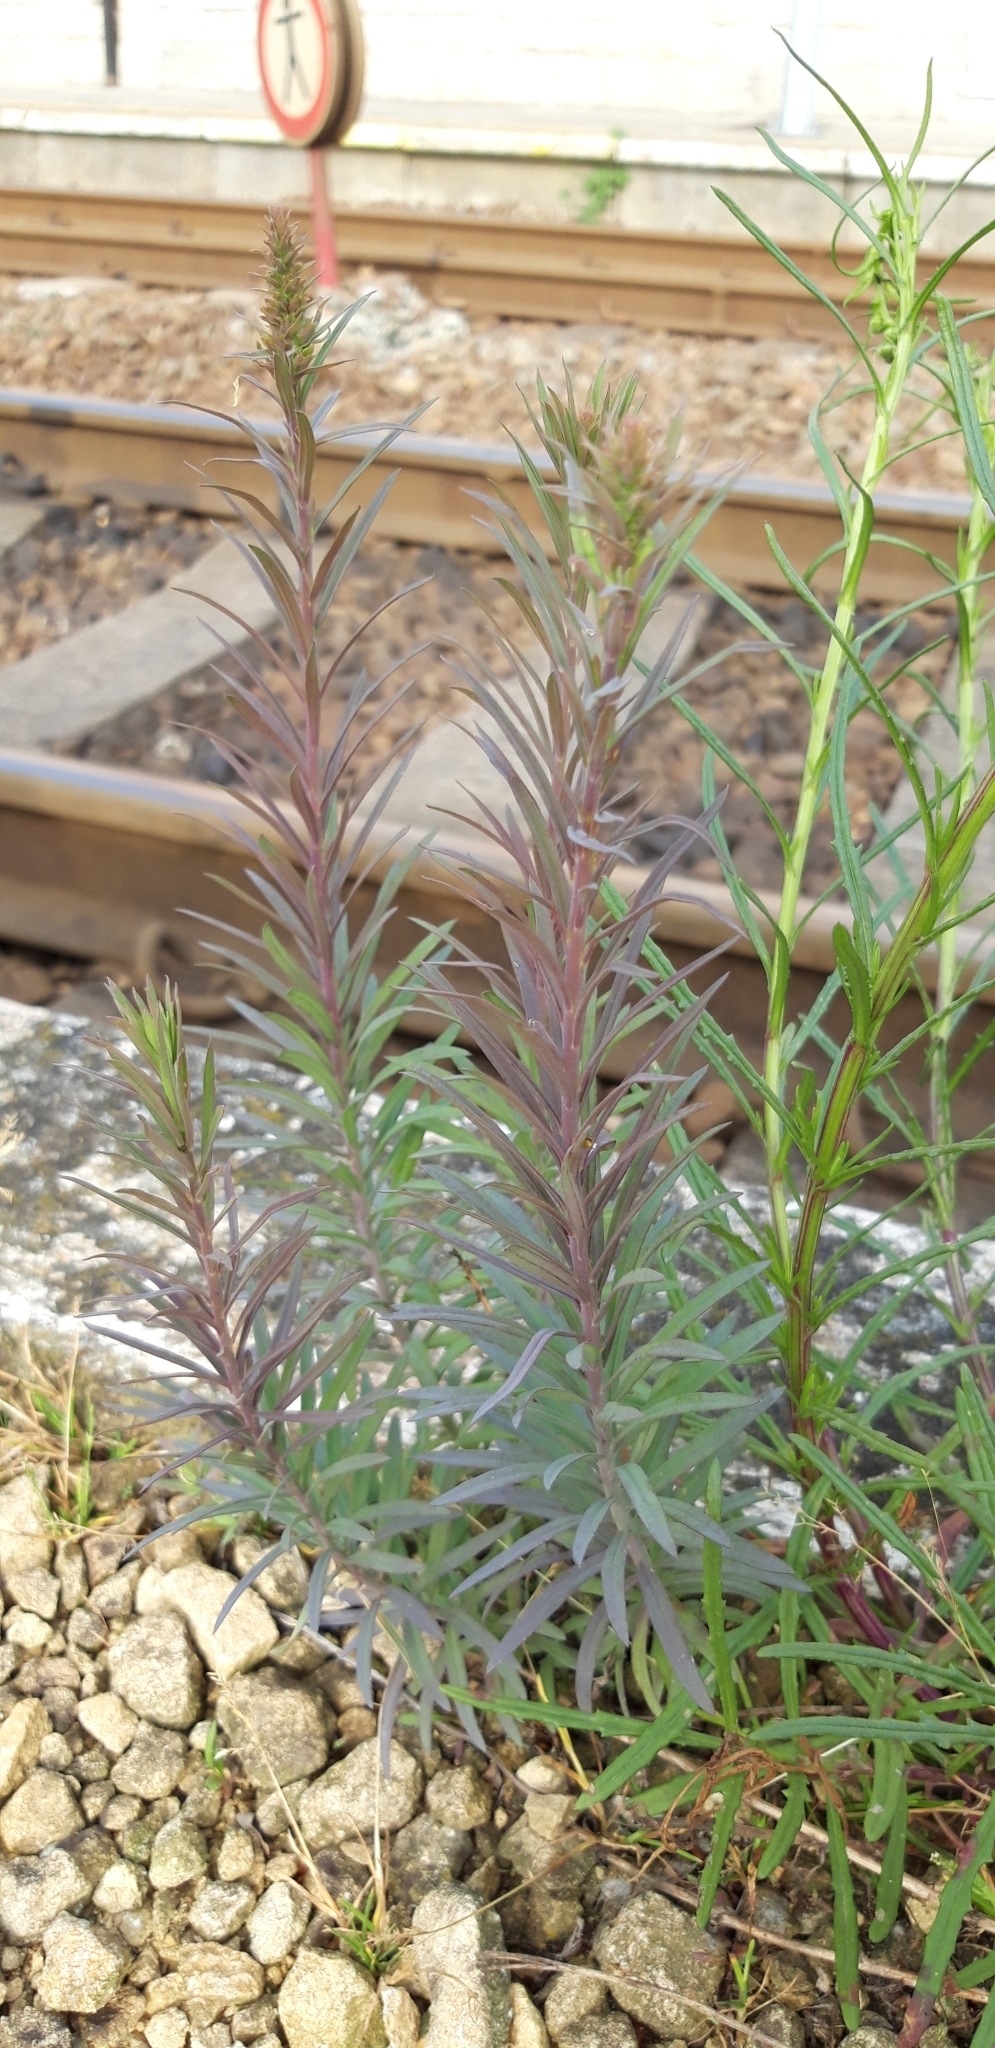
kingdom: Plantae
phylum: Tracheophyta
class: Magnoliopsida
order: Lamiales
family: Plantaginaceae
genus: Linaria
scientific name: Linaria vulgaris
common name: Butter and eggs
